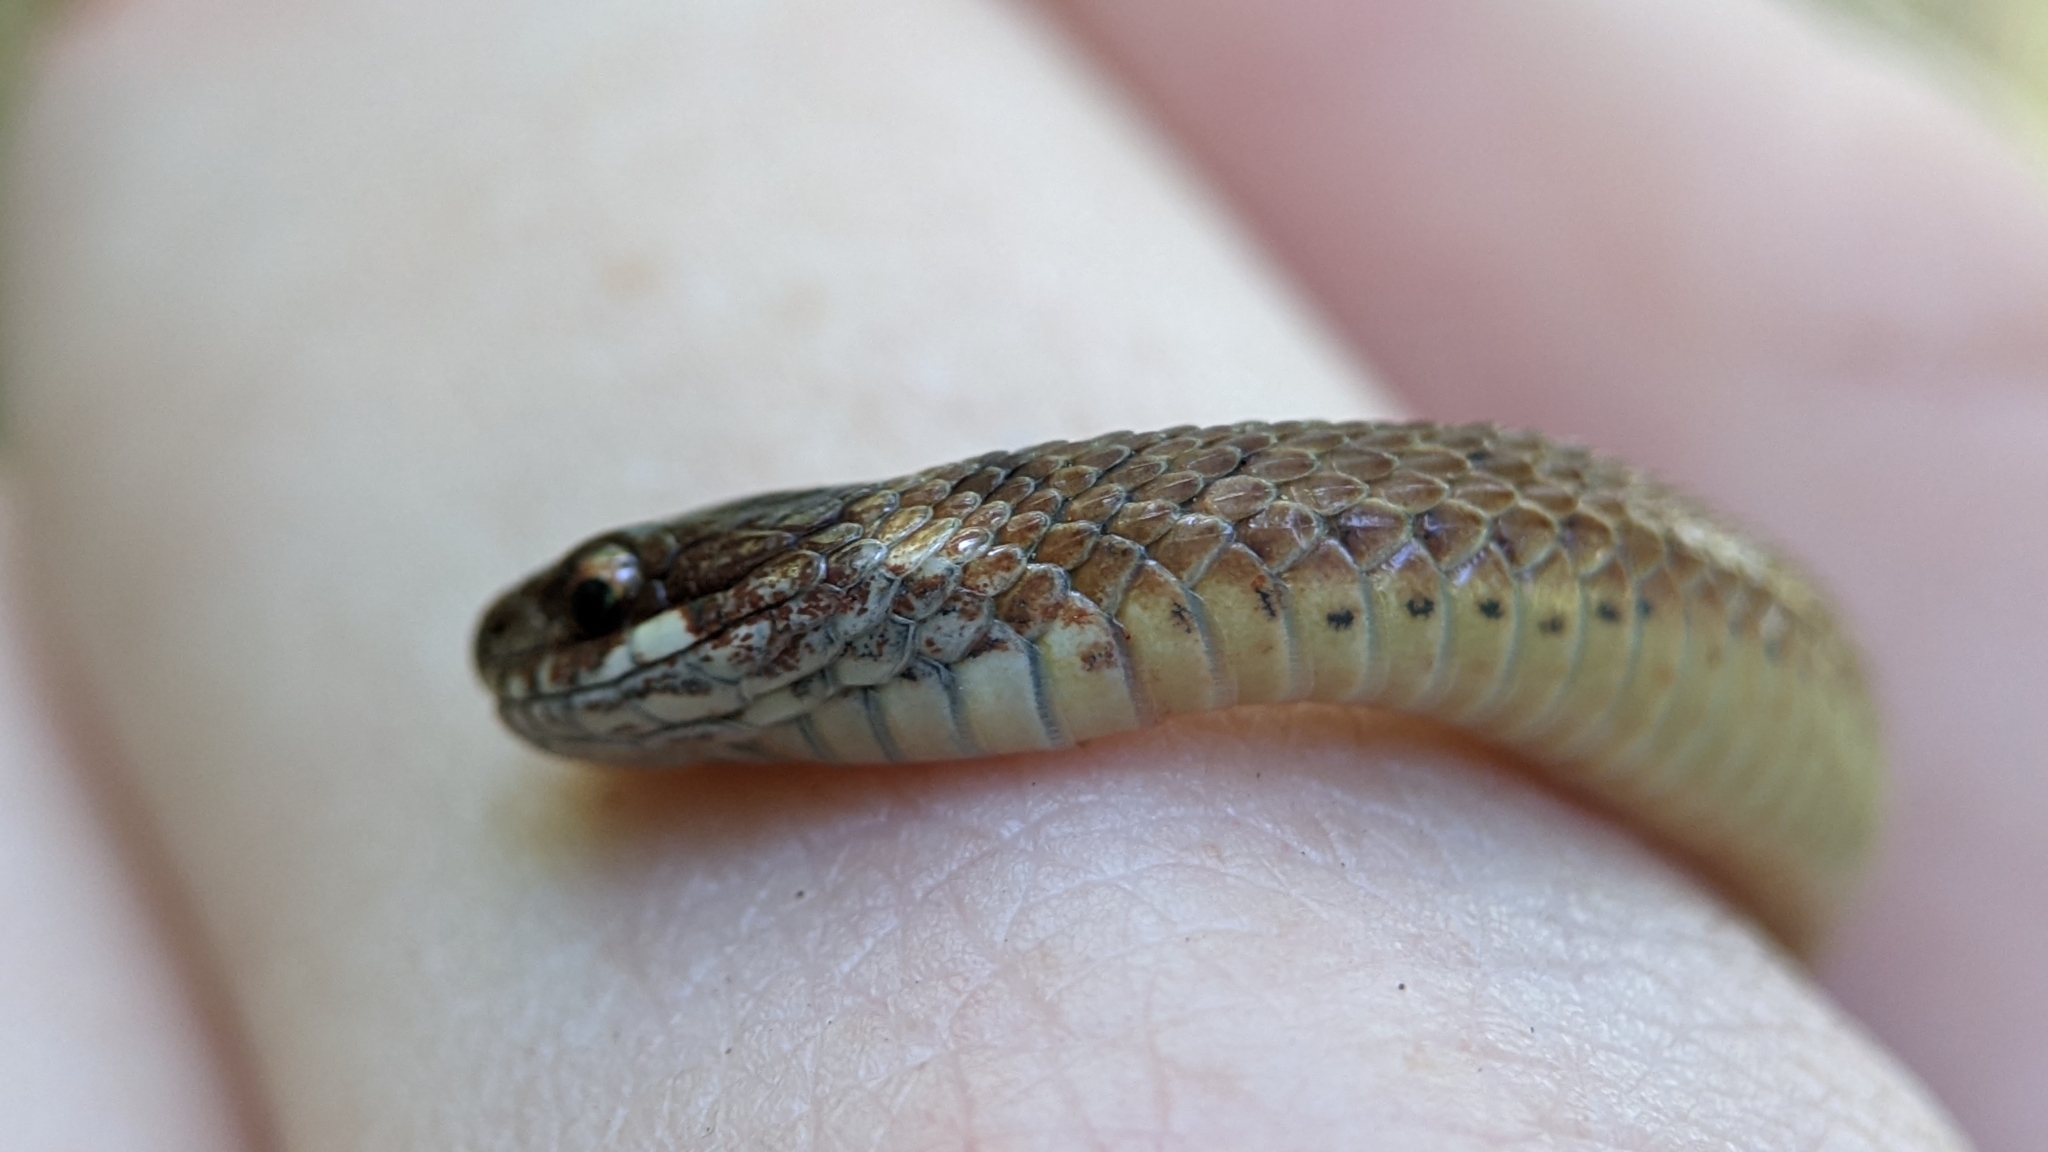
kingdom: Animalia
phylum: Chordata
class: Squamata
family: Colubridae
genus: Storeria
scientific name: Storeria occipitomaculata
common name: Redbelly snake
